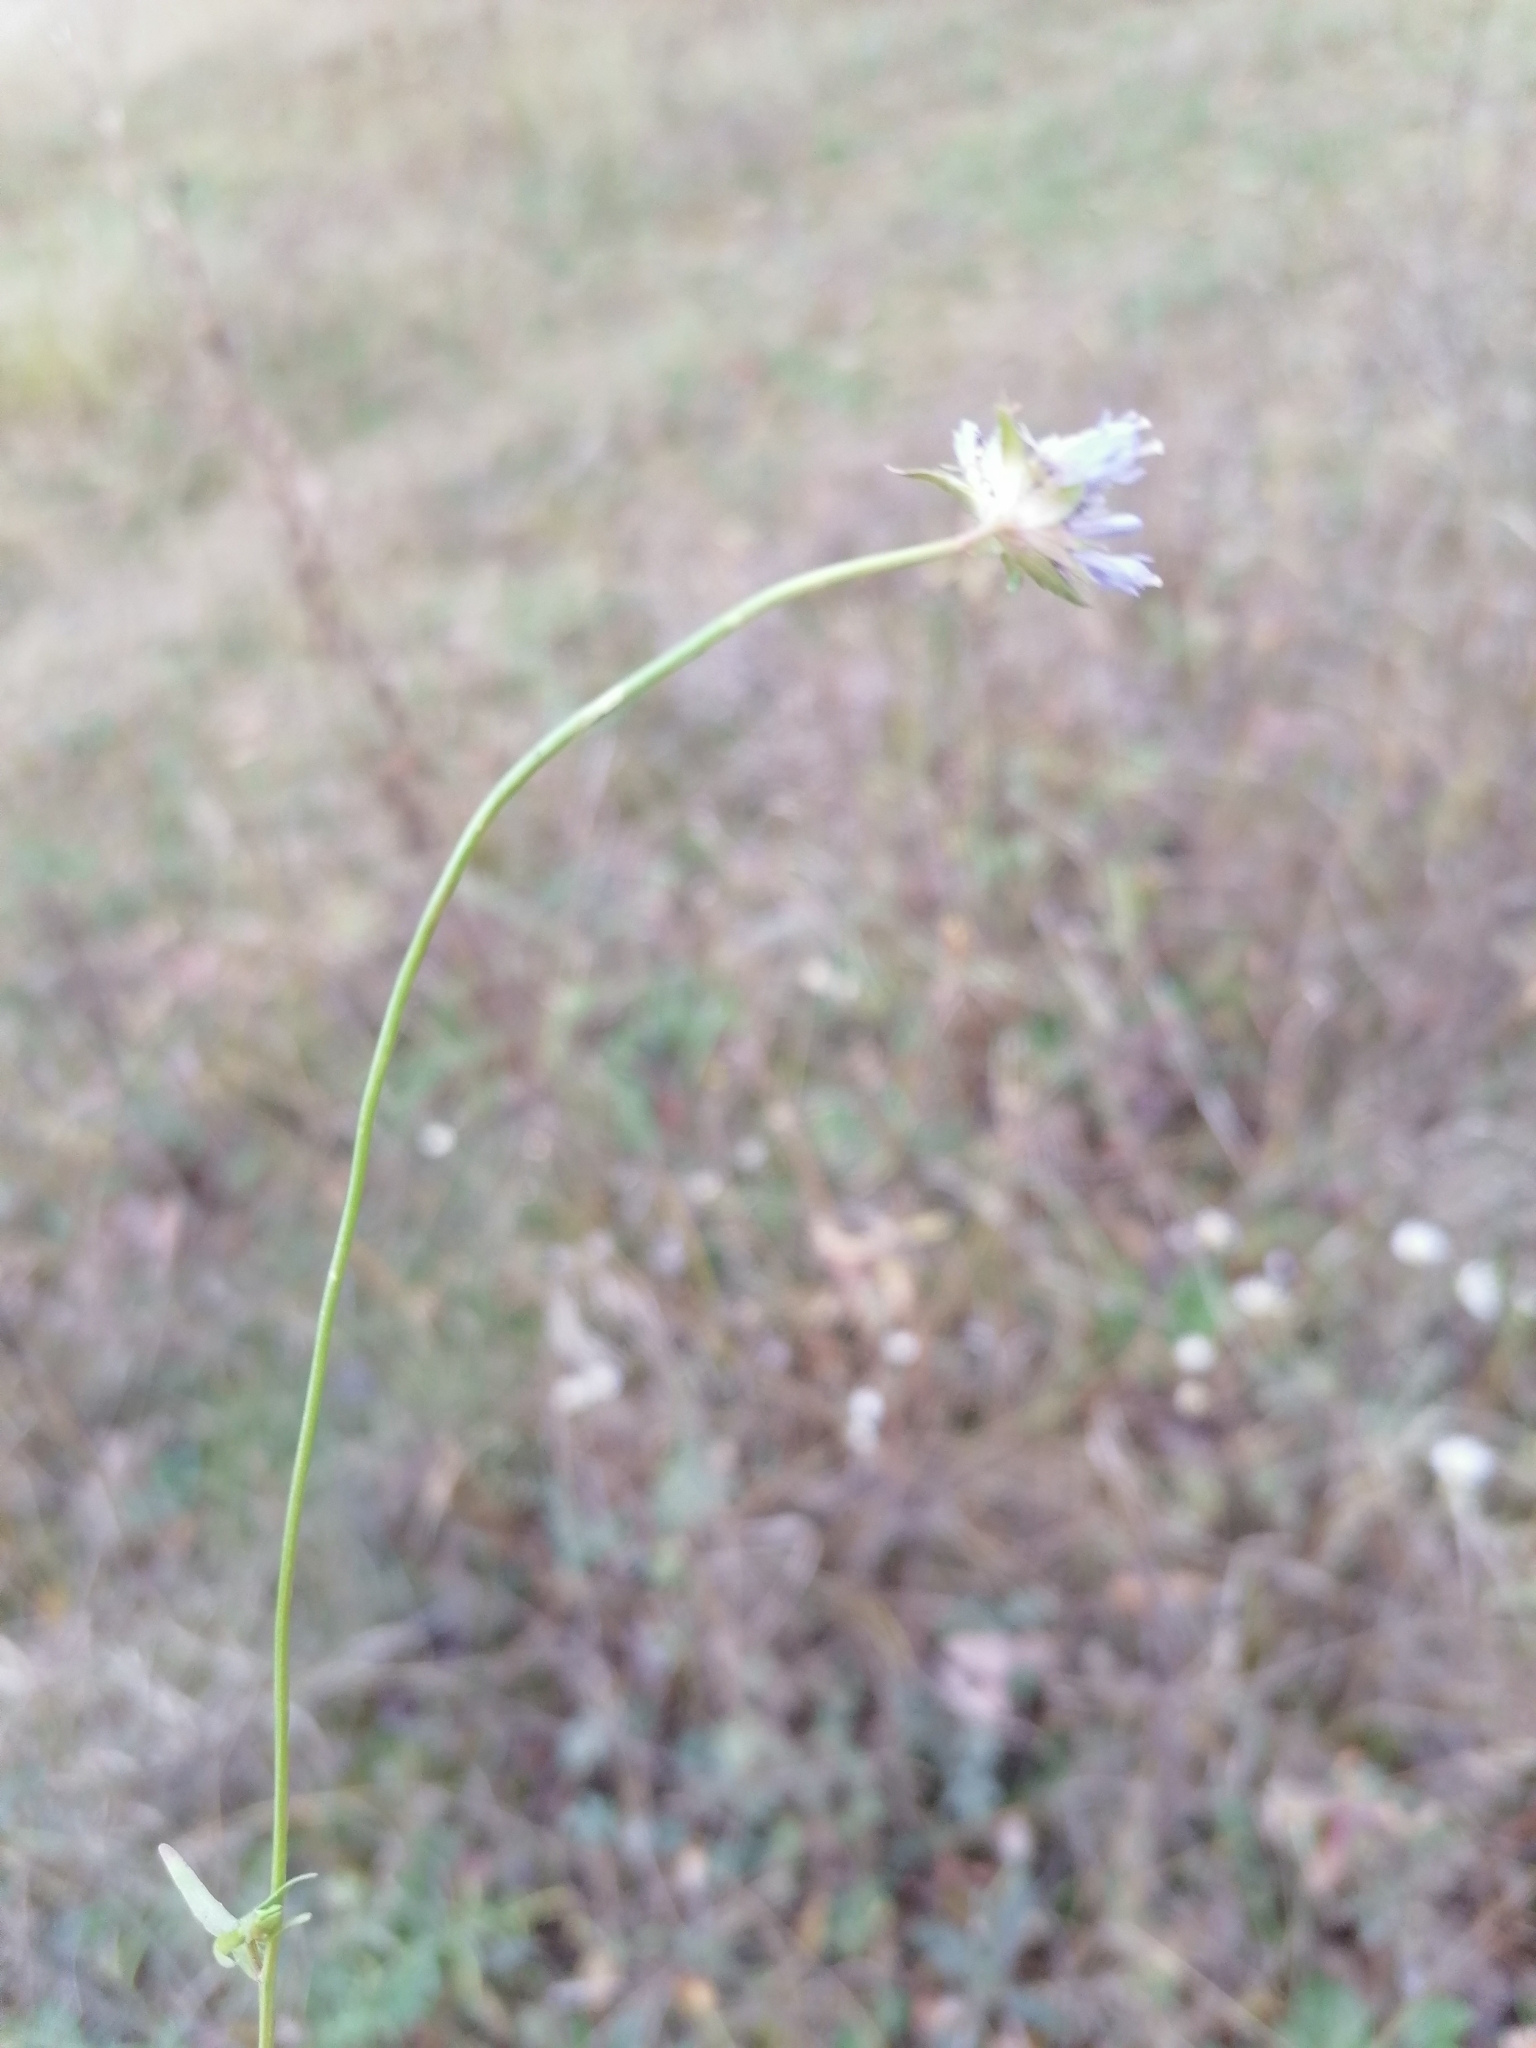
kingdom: Plantae
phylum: Tracheophyta
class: Magnoliopsida
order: Asterales
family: Campanulaceae
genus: Jasione
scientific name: Jasione montana
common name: Sheep's-bit
